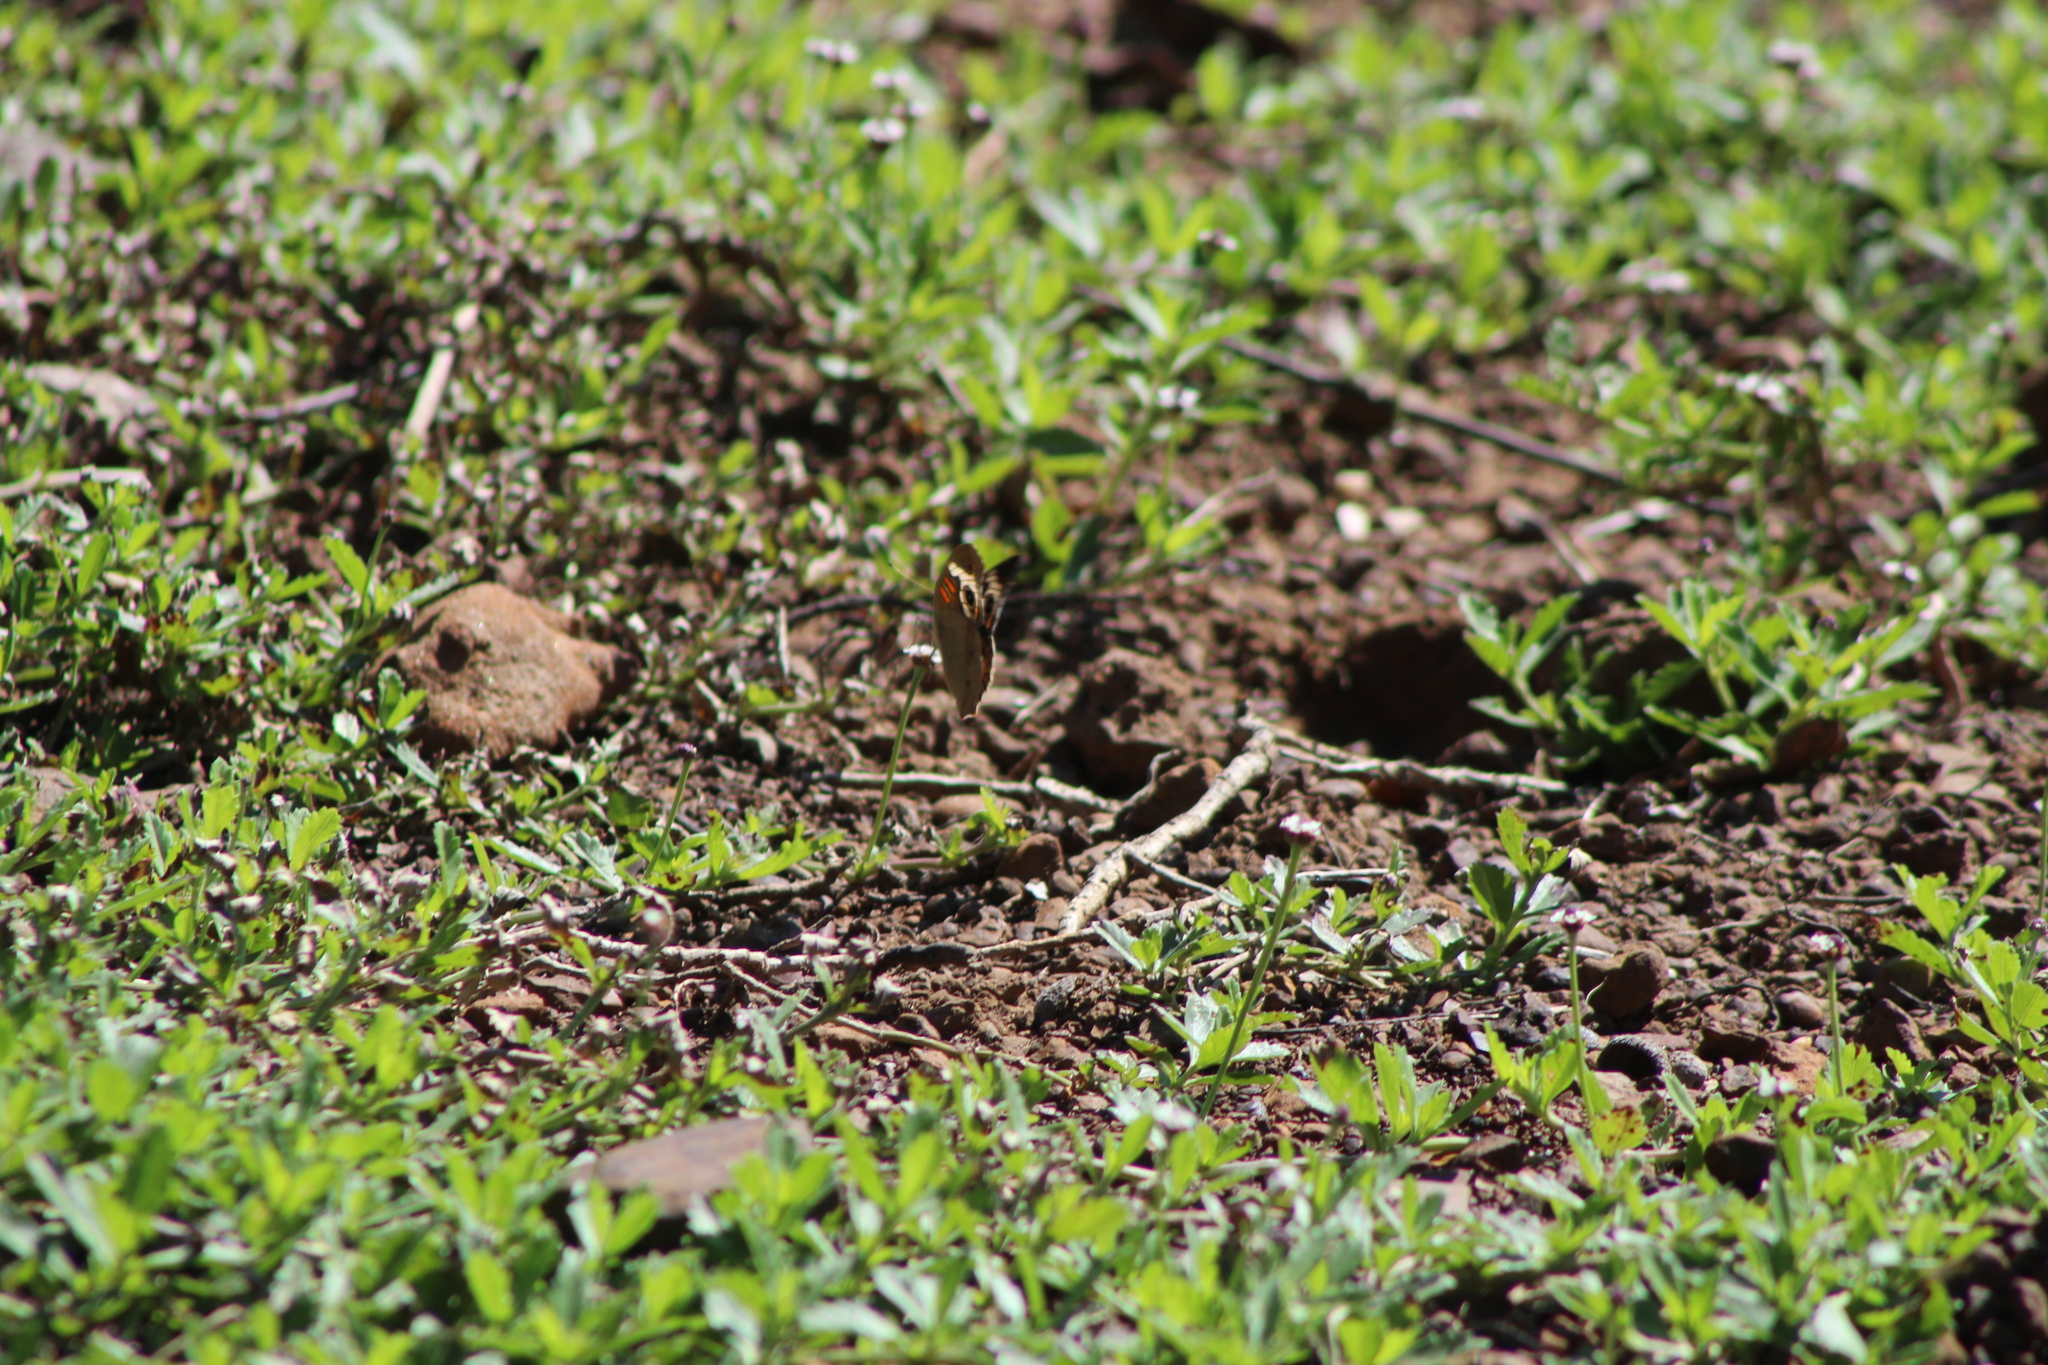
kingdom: Animalia
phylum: Arthropoda
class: Insecta
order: Lepidoptera
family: Nymphalidae
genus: Junonia
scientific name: Junonia coenia
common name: Common buckeye
